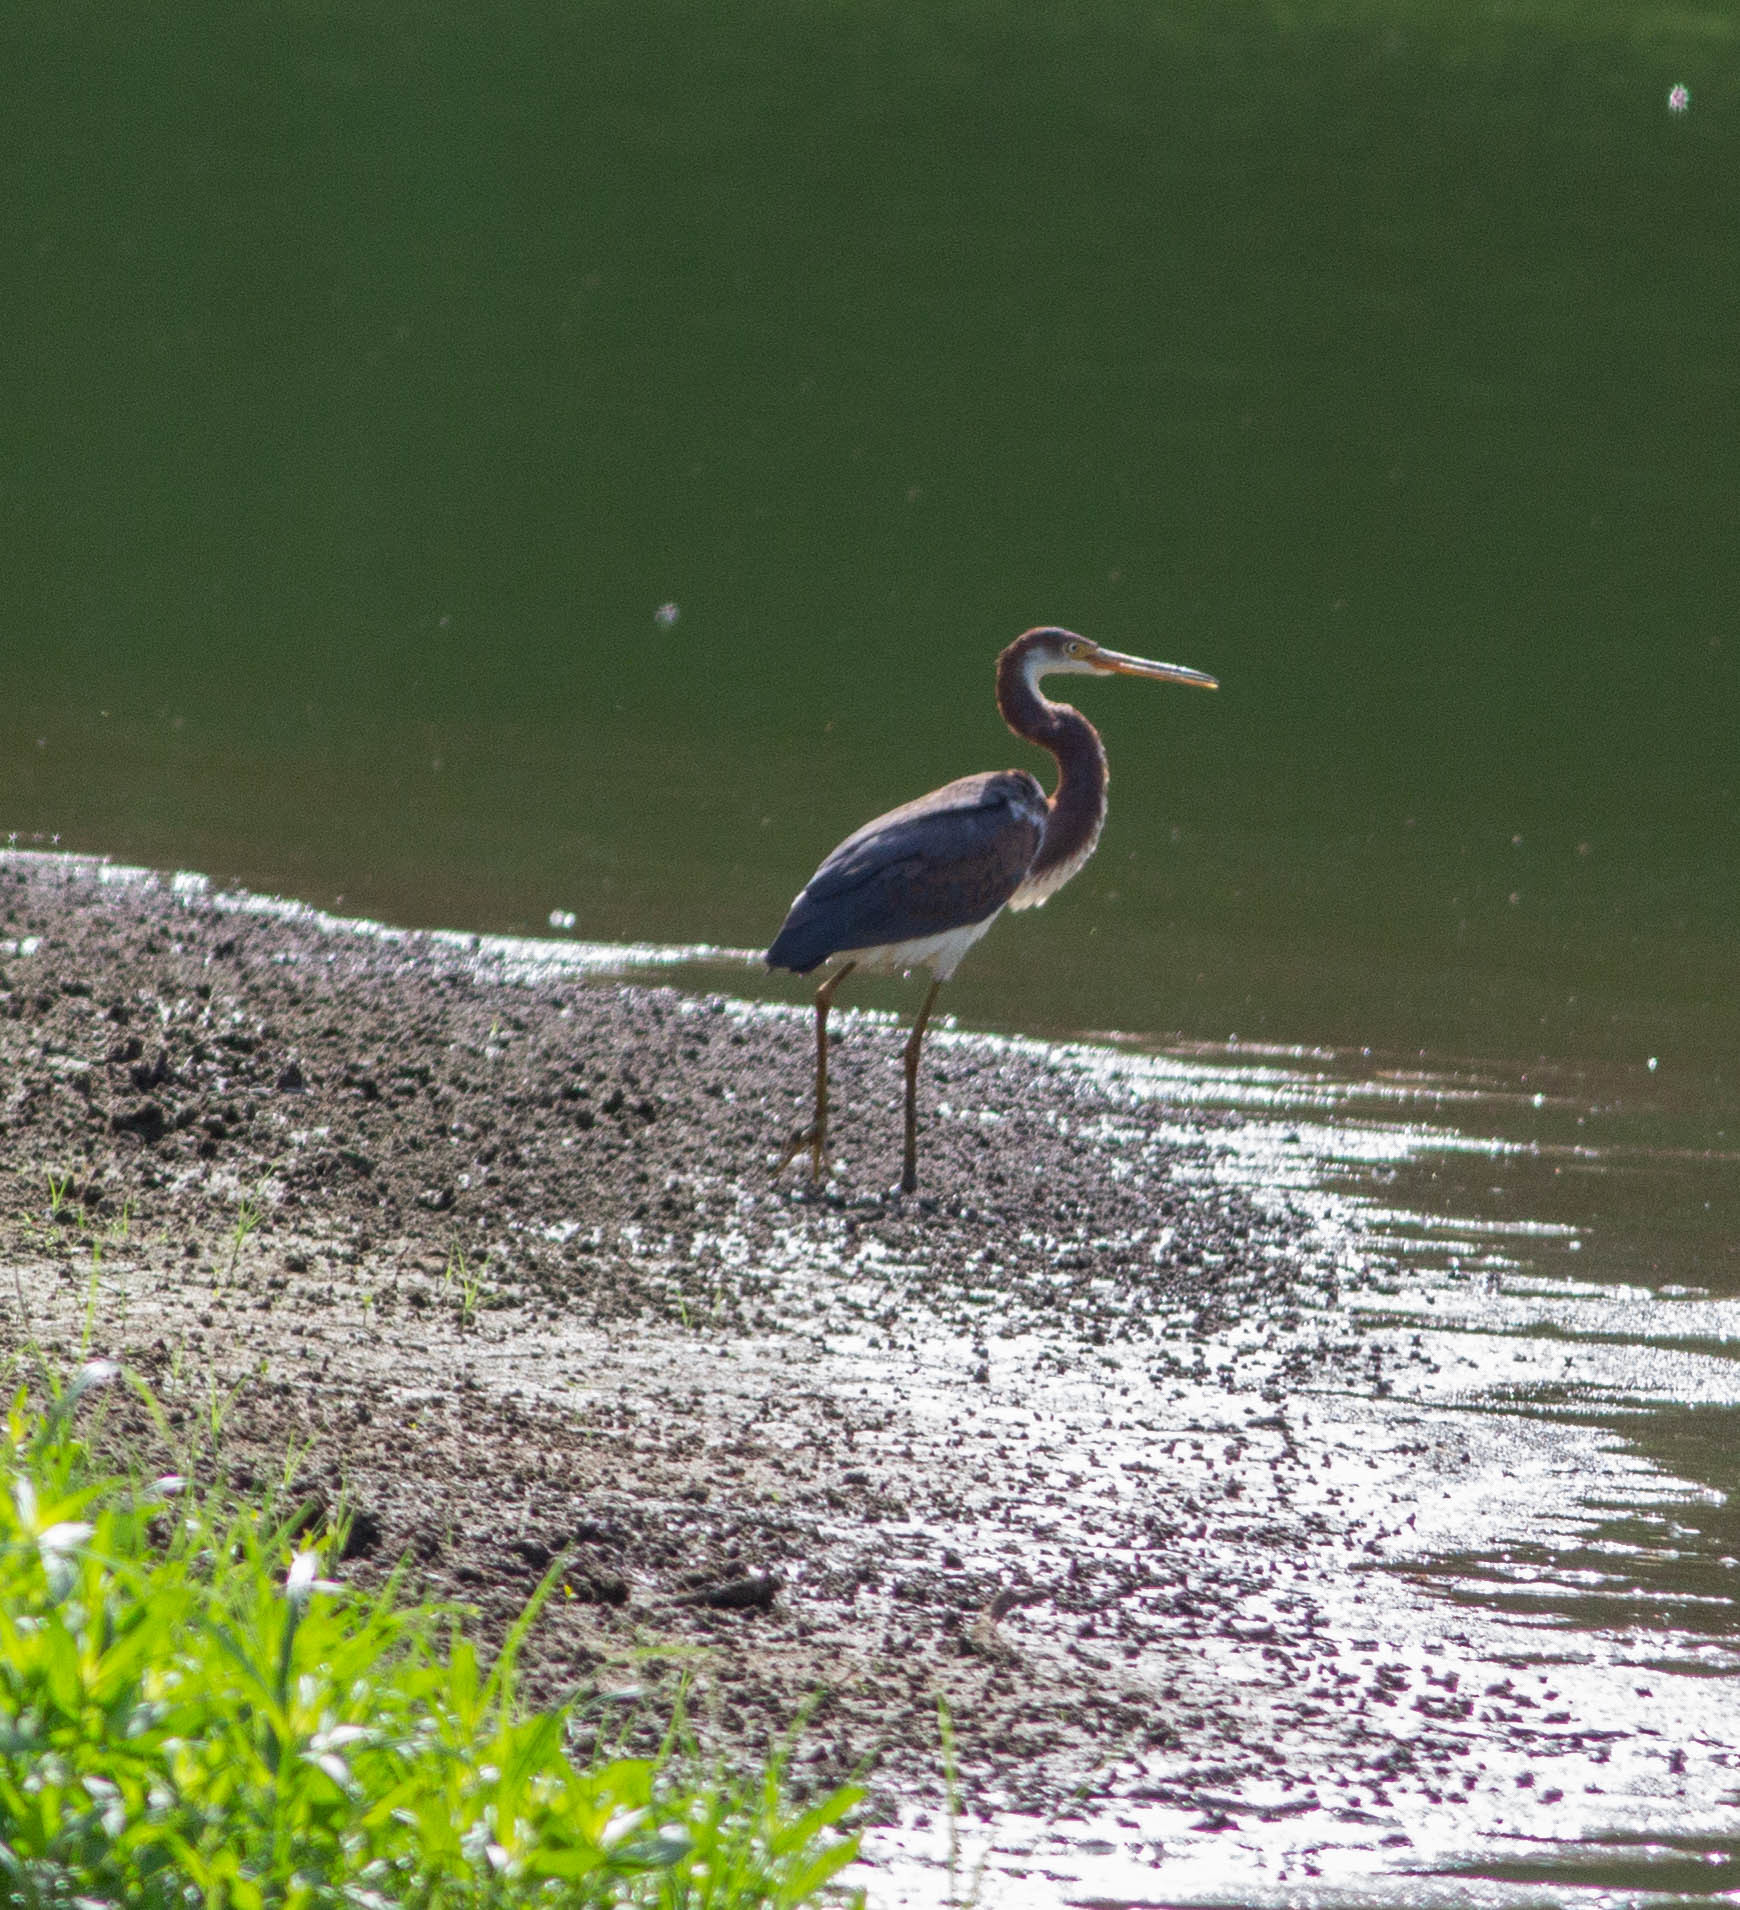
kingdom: Animalia
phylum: Chordata
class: Aves
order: Pelecaniformes
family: Ardeidae
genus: Egretta
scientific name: Egretta tricolor
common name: Tricolored heron
